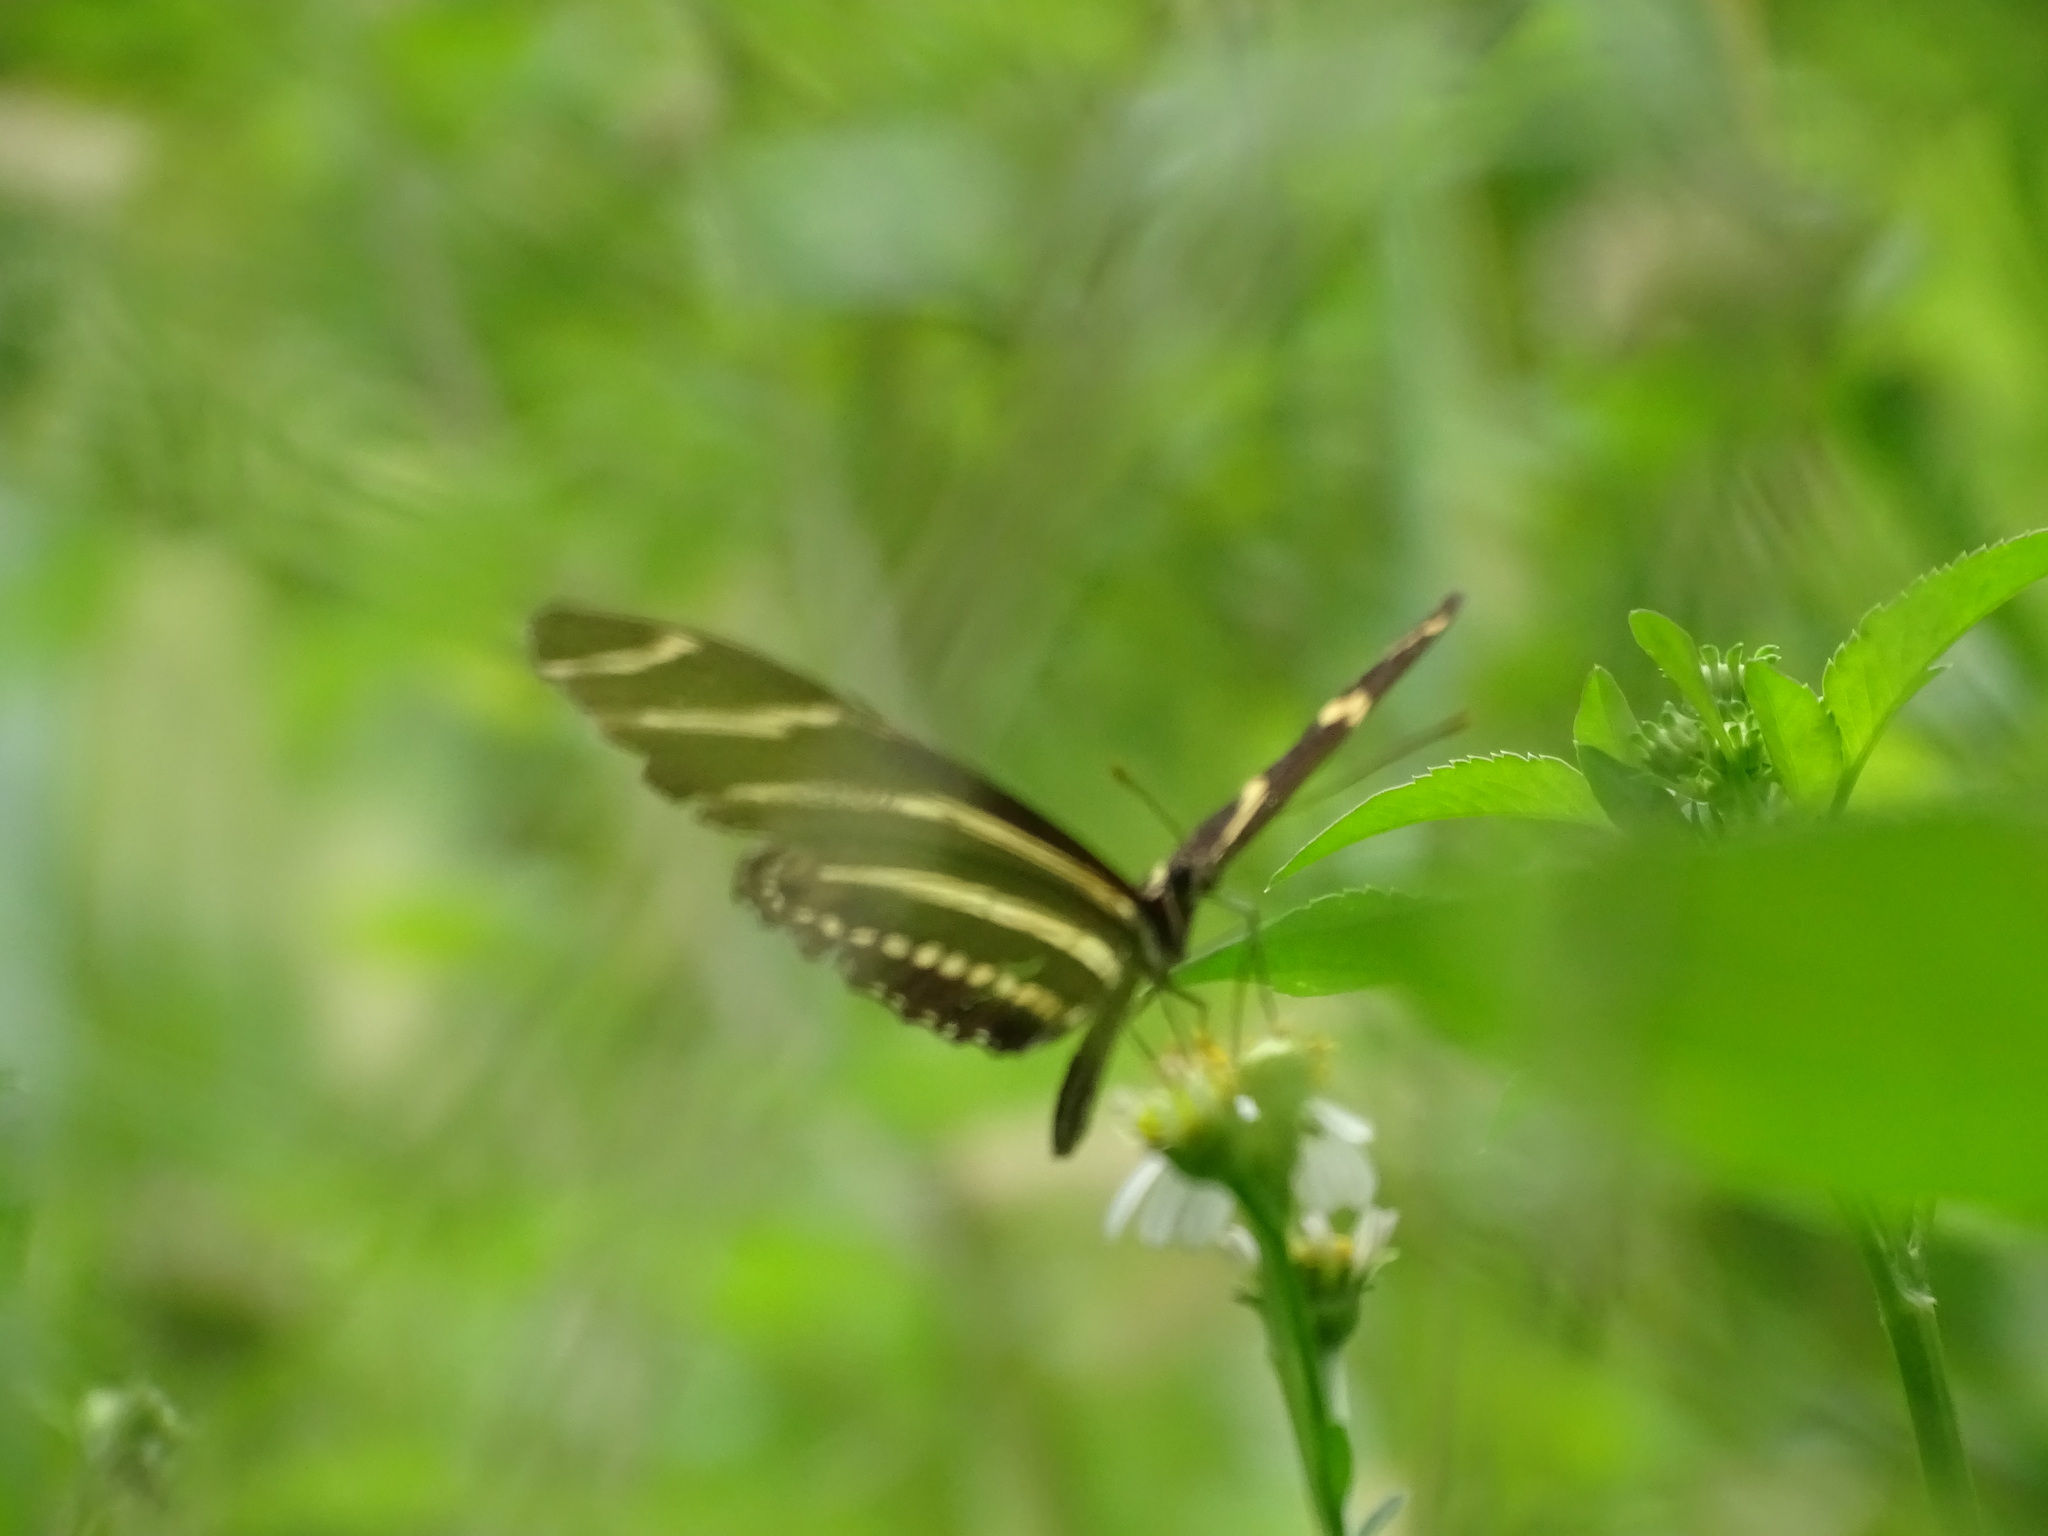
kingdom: Animalia
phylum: Arthropoda
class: Insecta
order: Lepidoptera
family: Nymphalidae
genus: Heliconius
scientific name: Heliconius charithonia
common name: Zebra long wing
